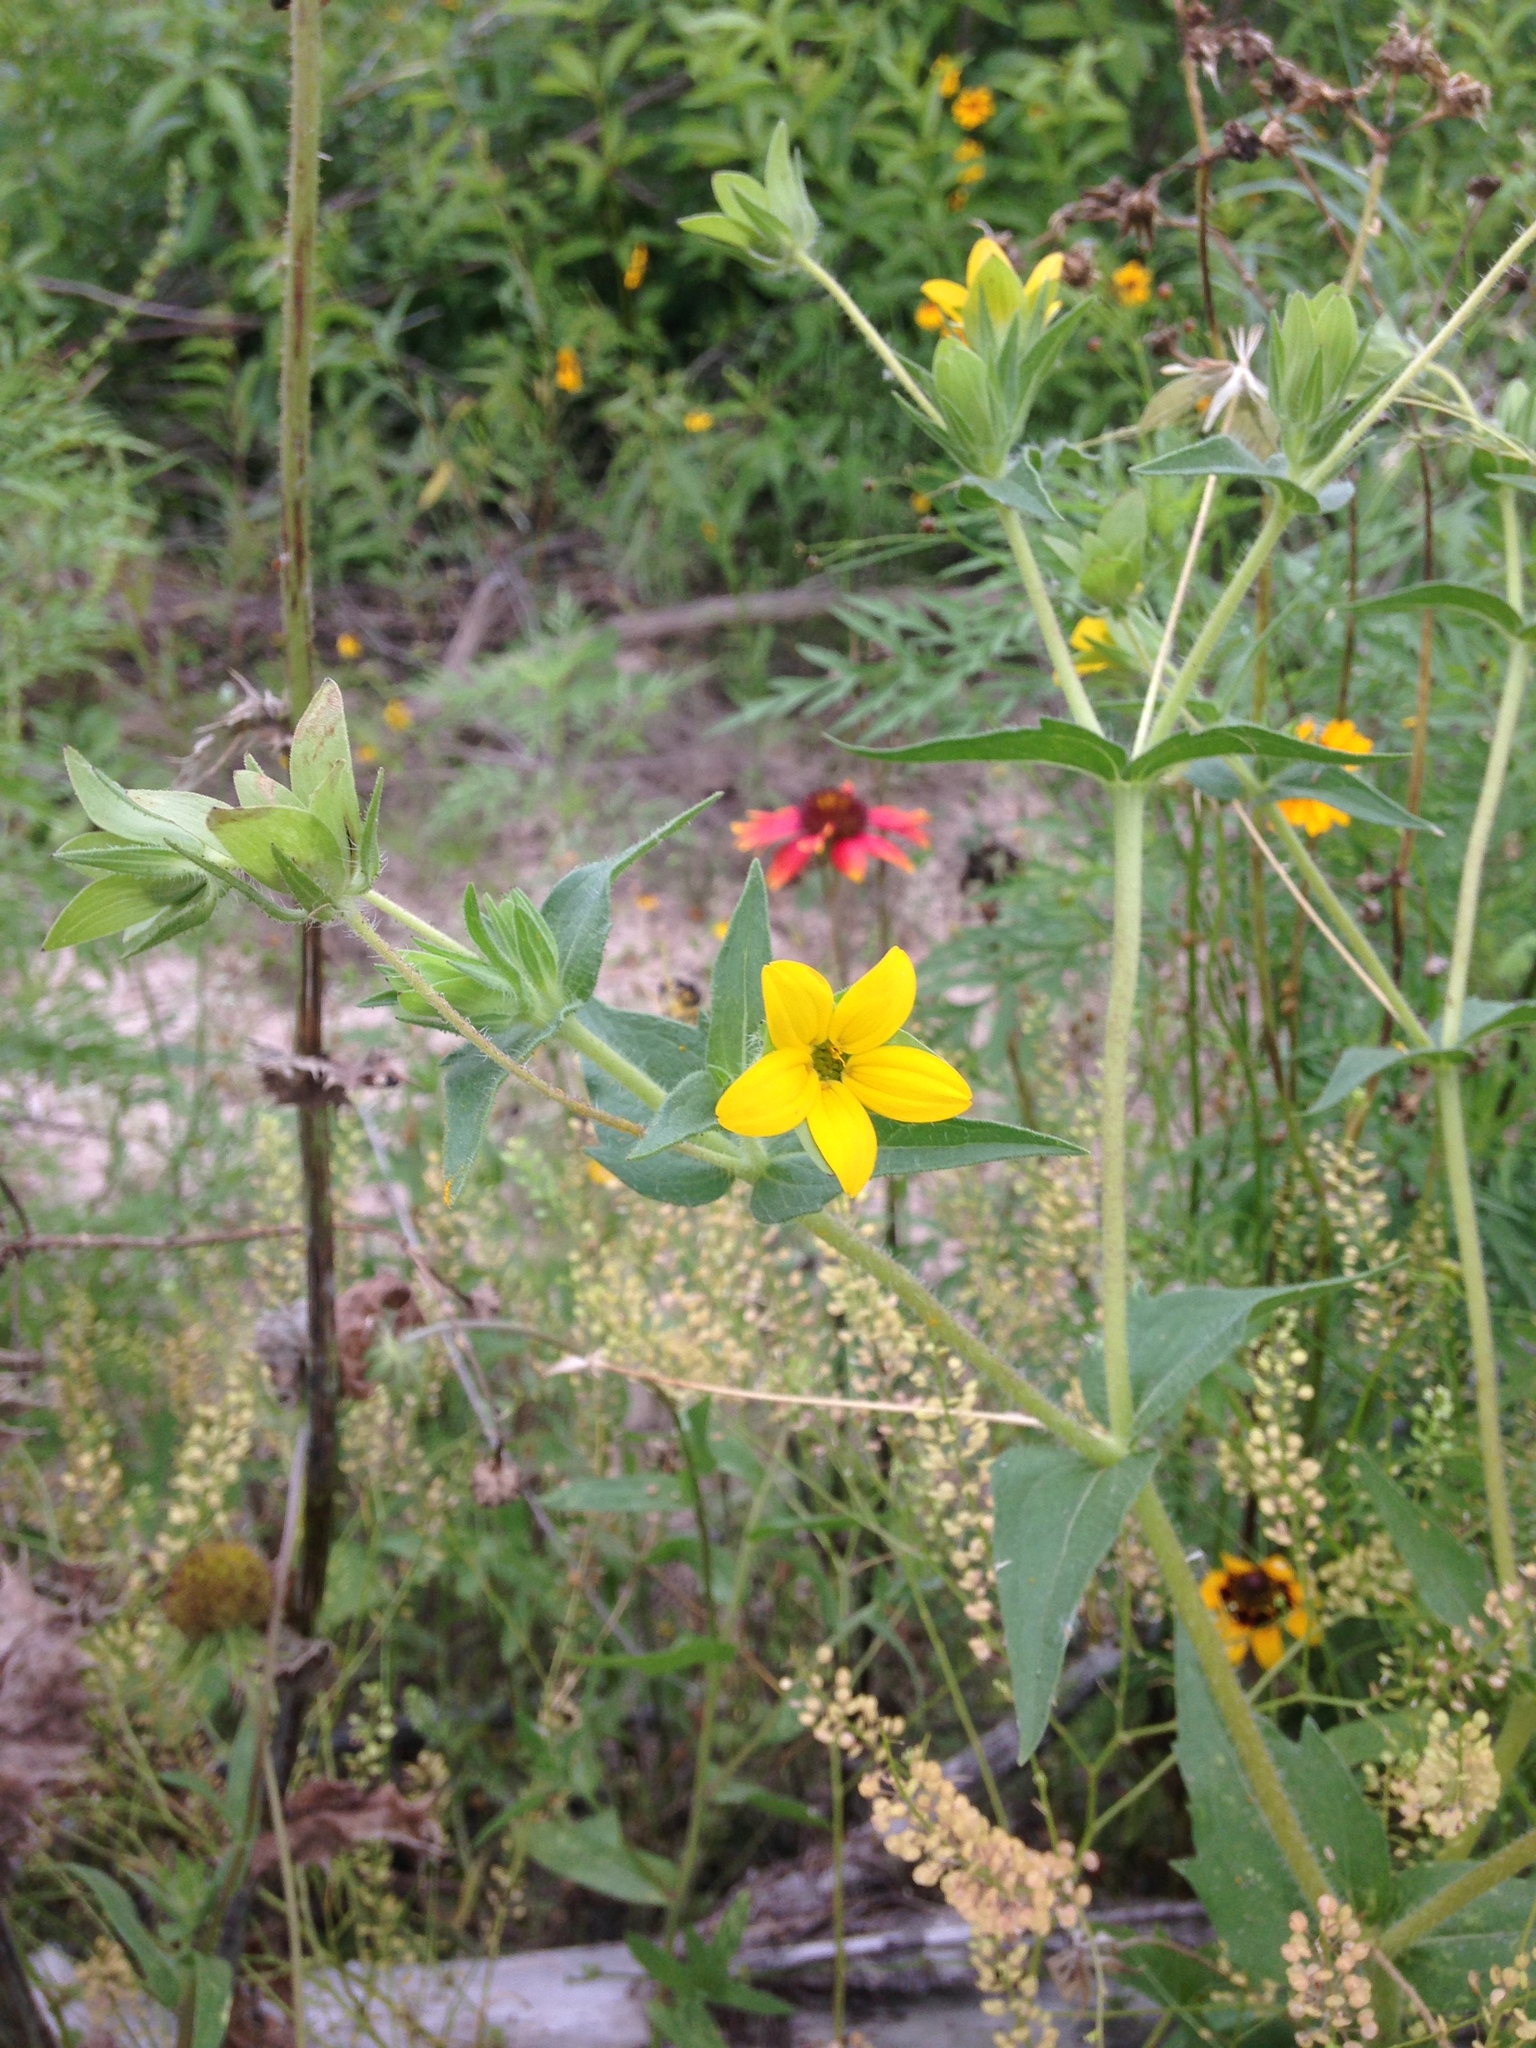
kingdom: Plantae
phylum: Tracheophyta
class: Magnoliopsida
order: Asterales
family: Asteraceae
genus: Lindheimera
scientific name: Lindheimera texana
